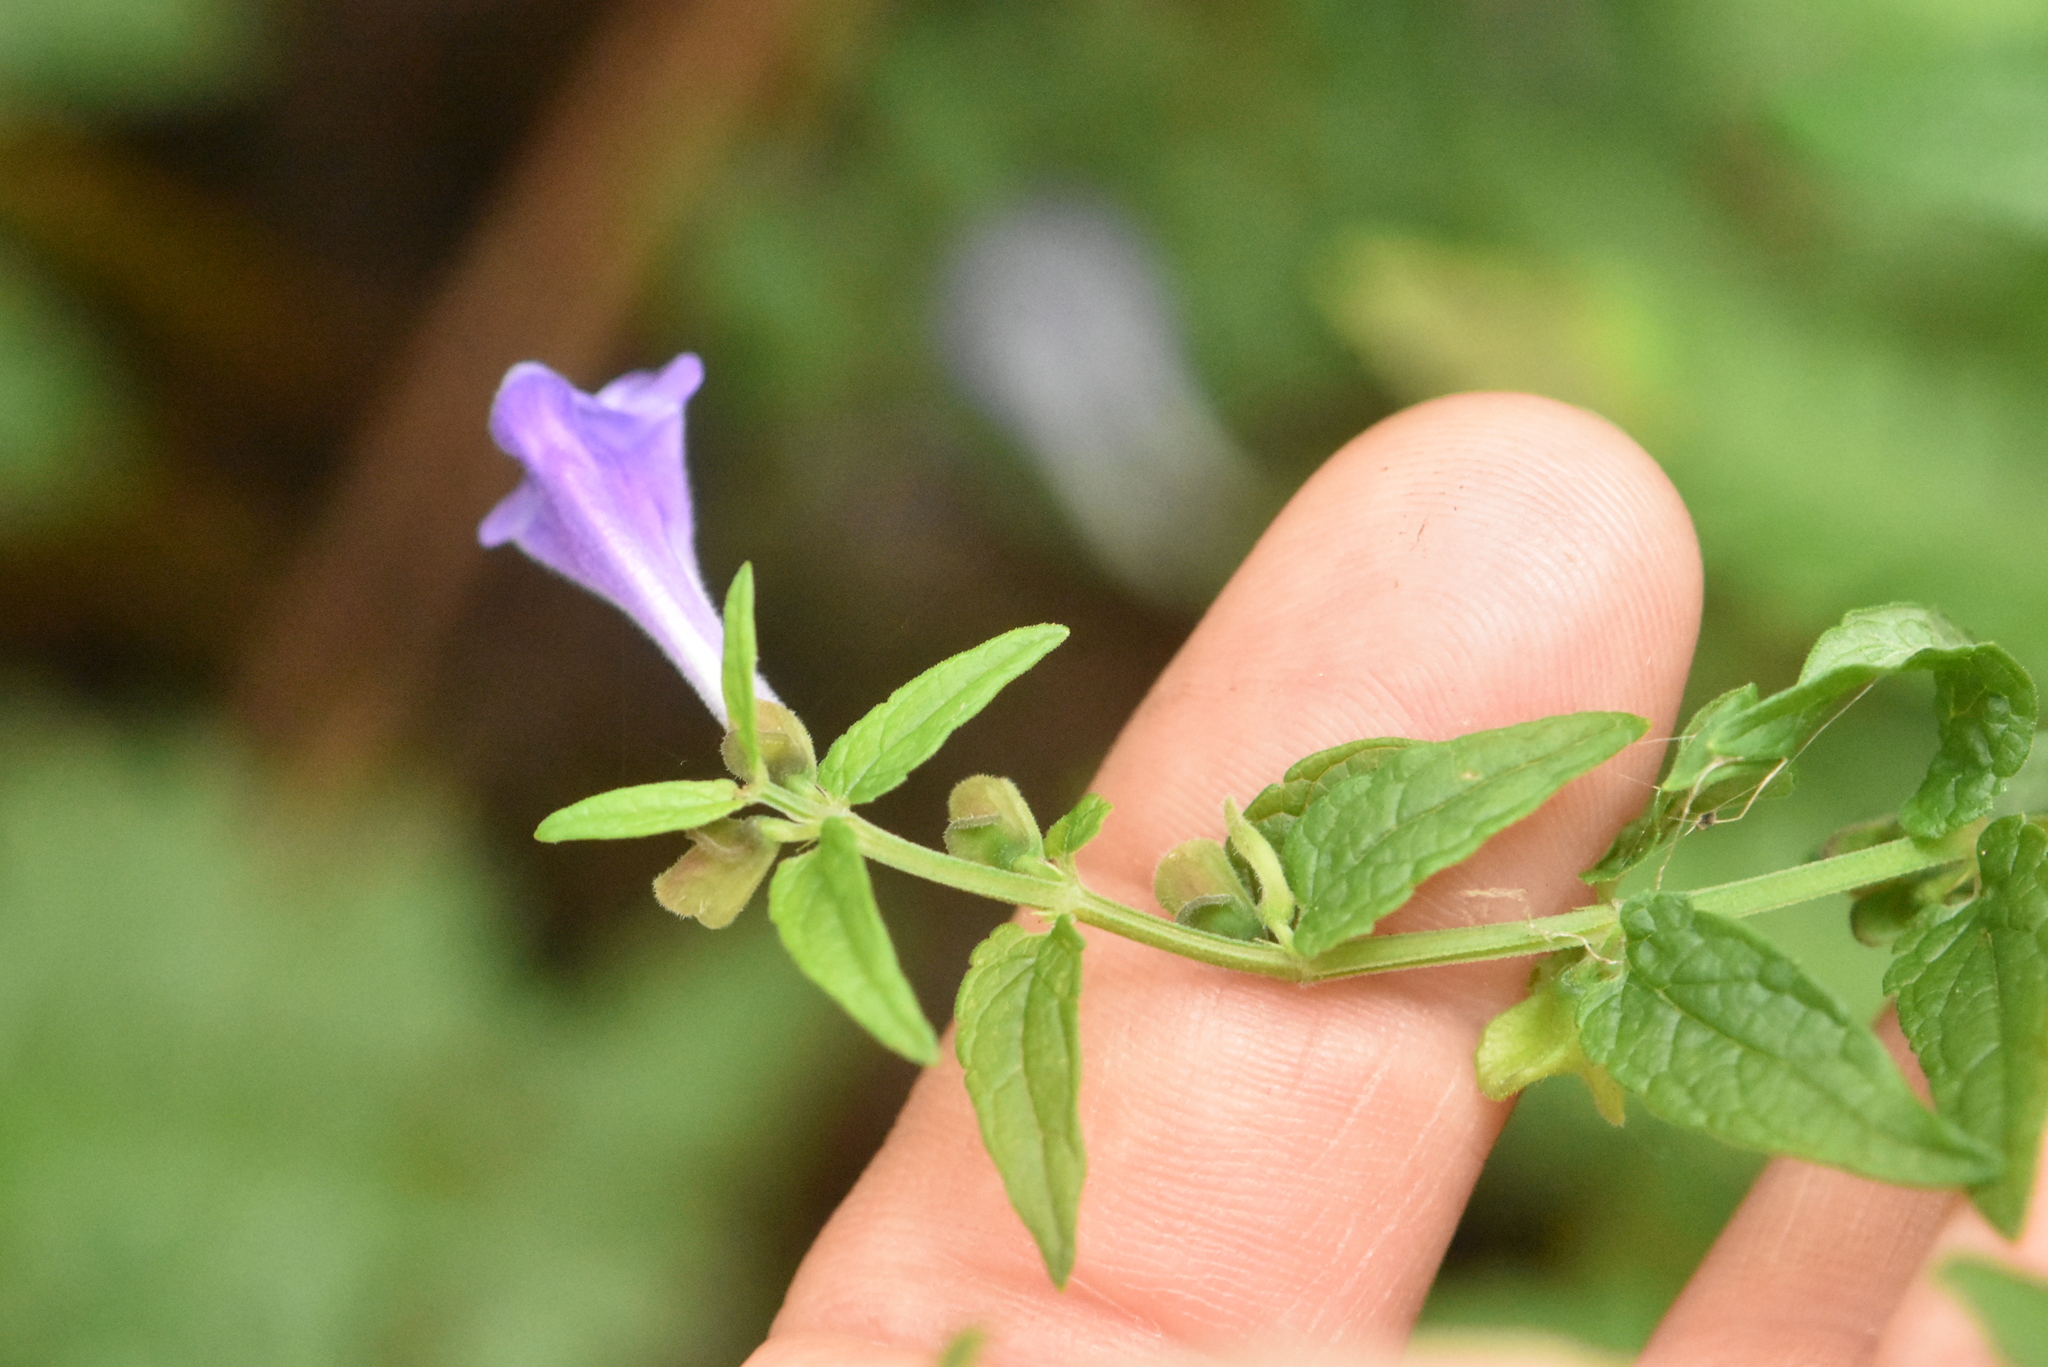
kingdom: Plantae
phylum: Tracheophyta
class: Magnoliopsida
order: Lamiales
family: Lamiaceae
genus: Scutellaria
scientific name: Scutellaria galericulata
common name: Skullcap
